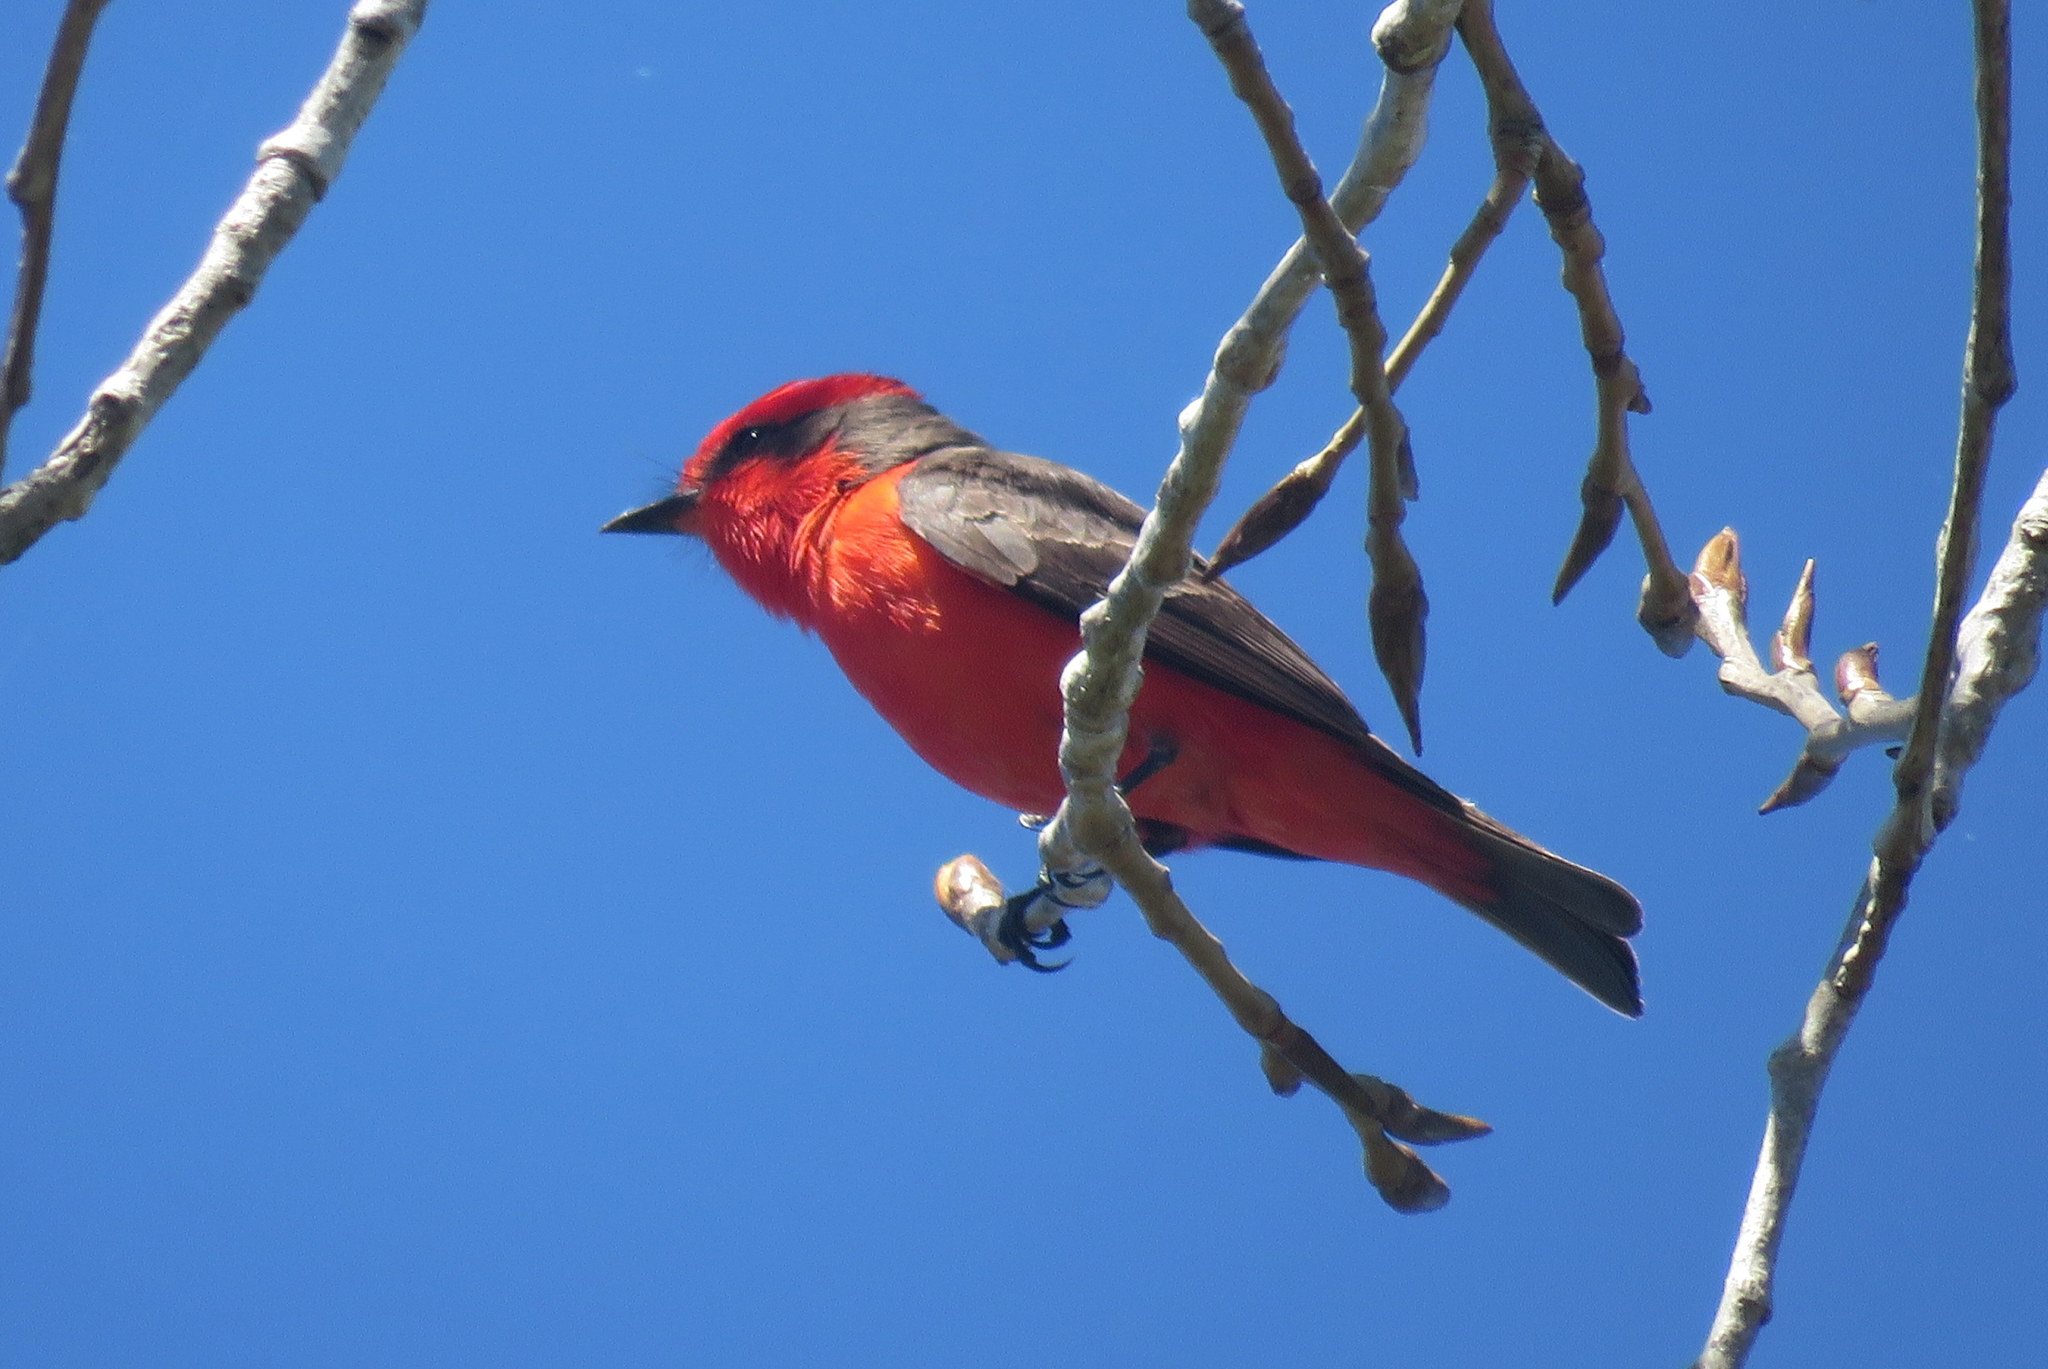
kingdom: Animalia
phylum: Chordata
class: Aves
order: Passeriformes
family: Tyrannidae
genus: Pyrocephalus
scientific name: Pyrocephalus rubinus
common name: Vermilion flycatcher
